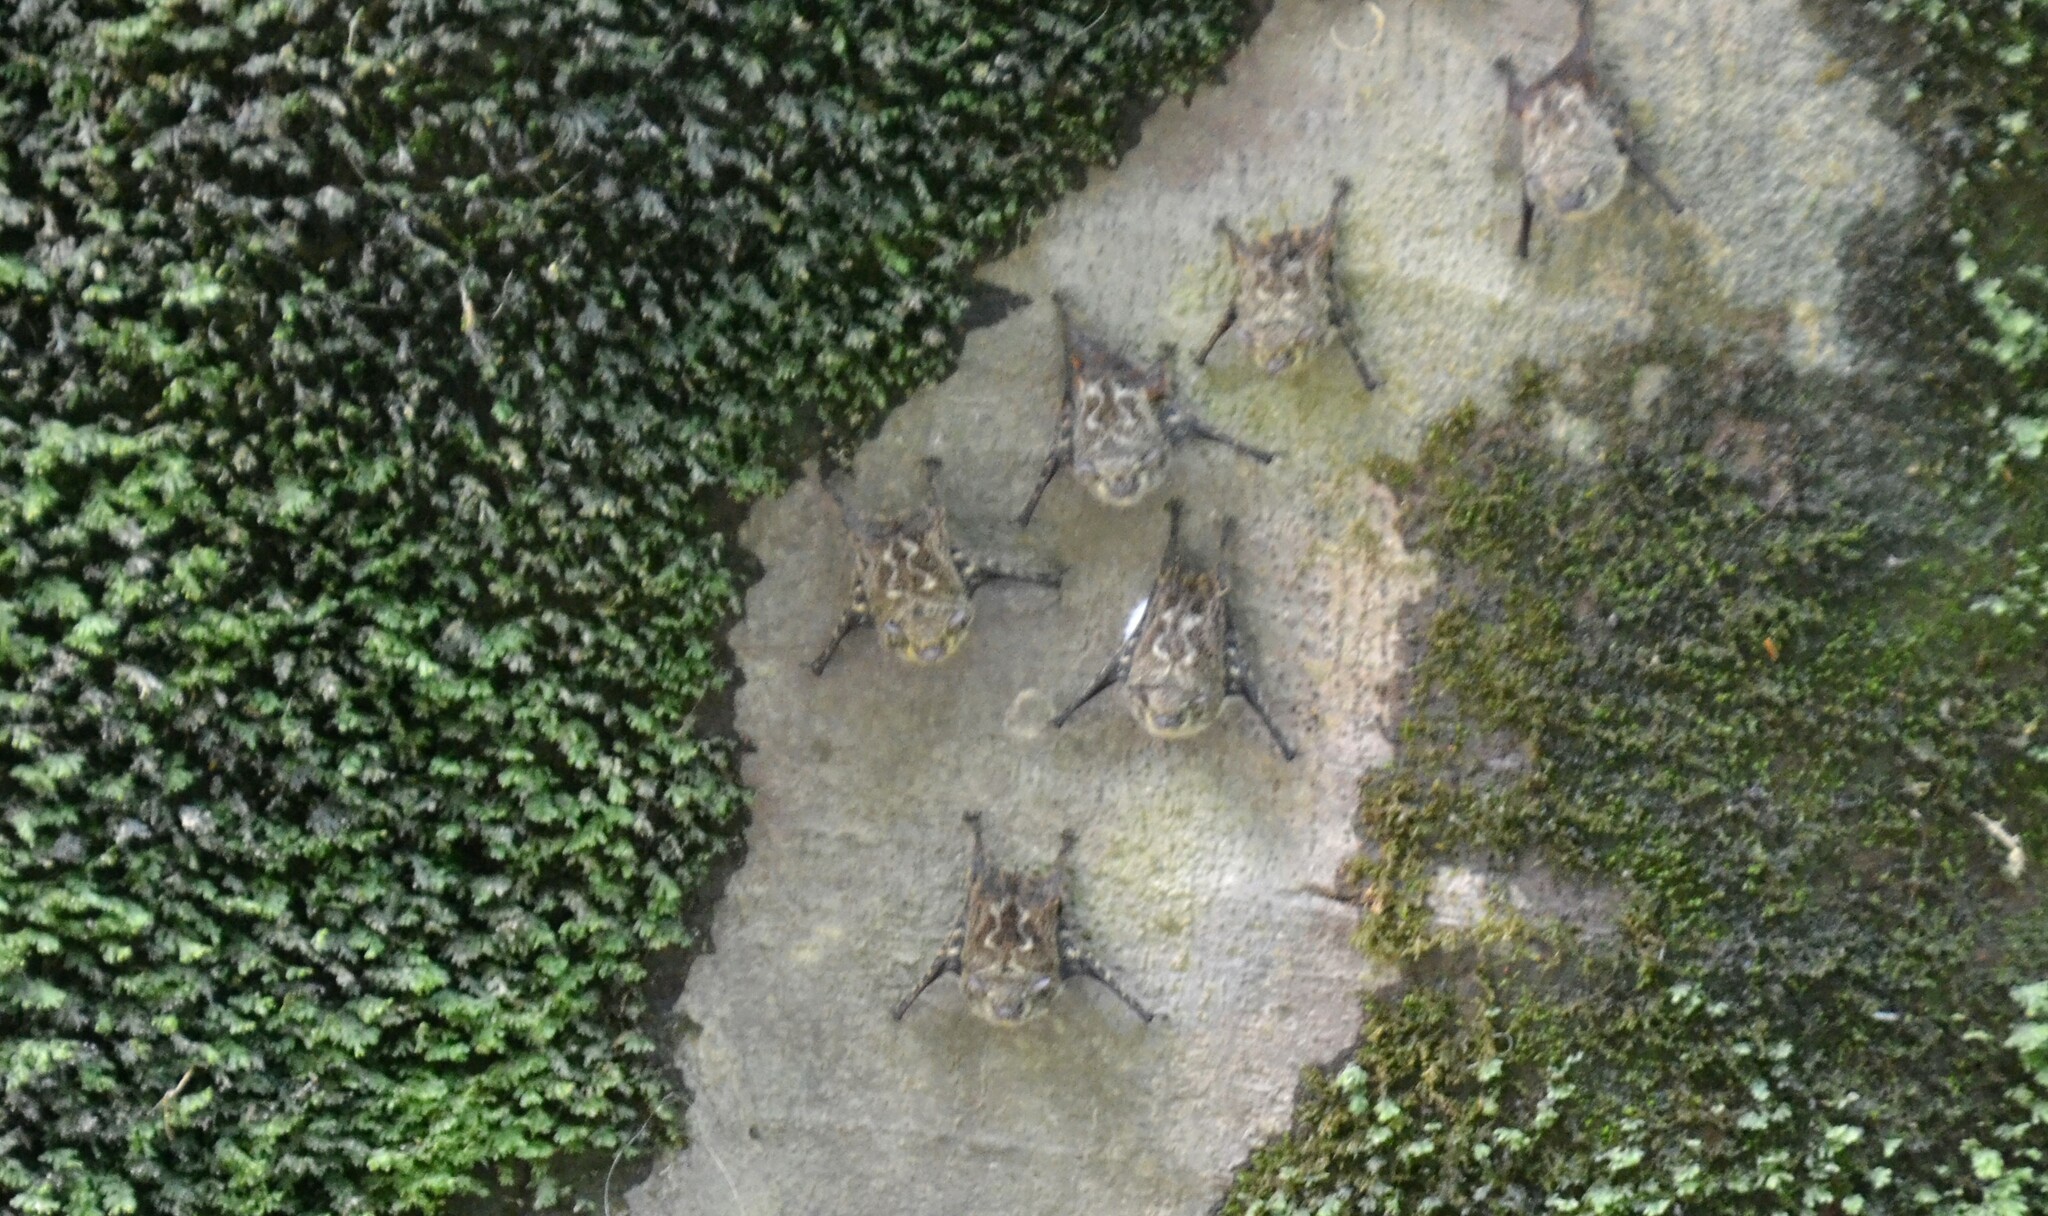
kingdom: Animalia
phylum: Chordata
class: Mammalia
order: Chiroptera
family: Emballonuridae
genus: Rhynchonycteris
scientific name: Rhynchonycteris naso
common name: Proboscis bat
